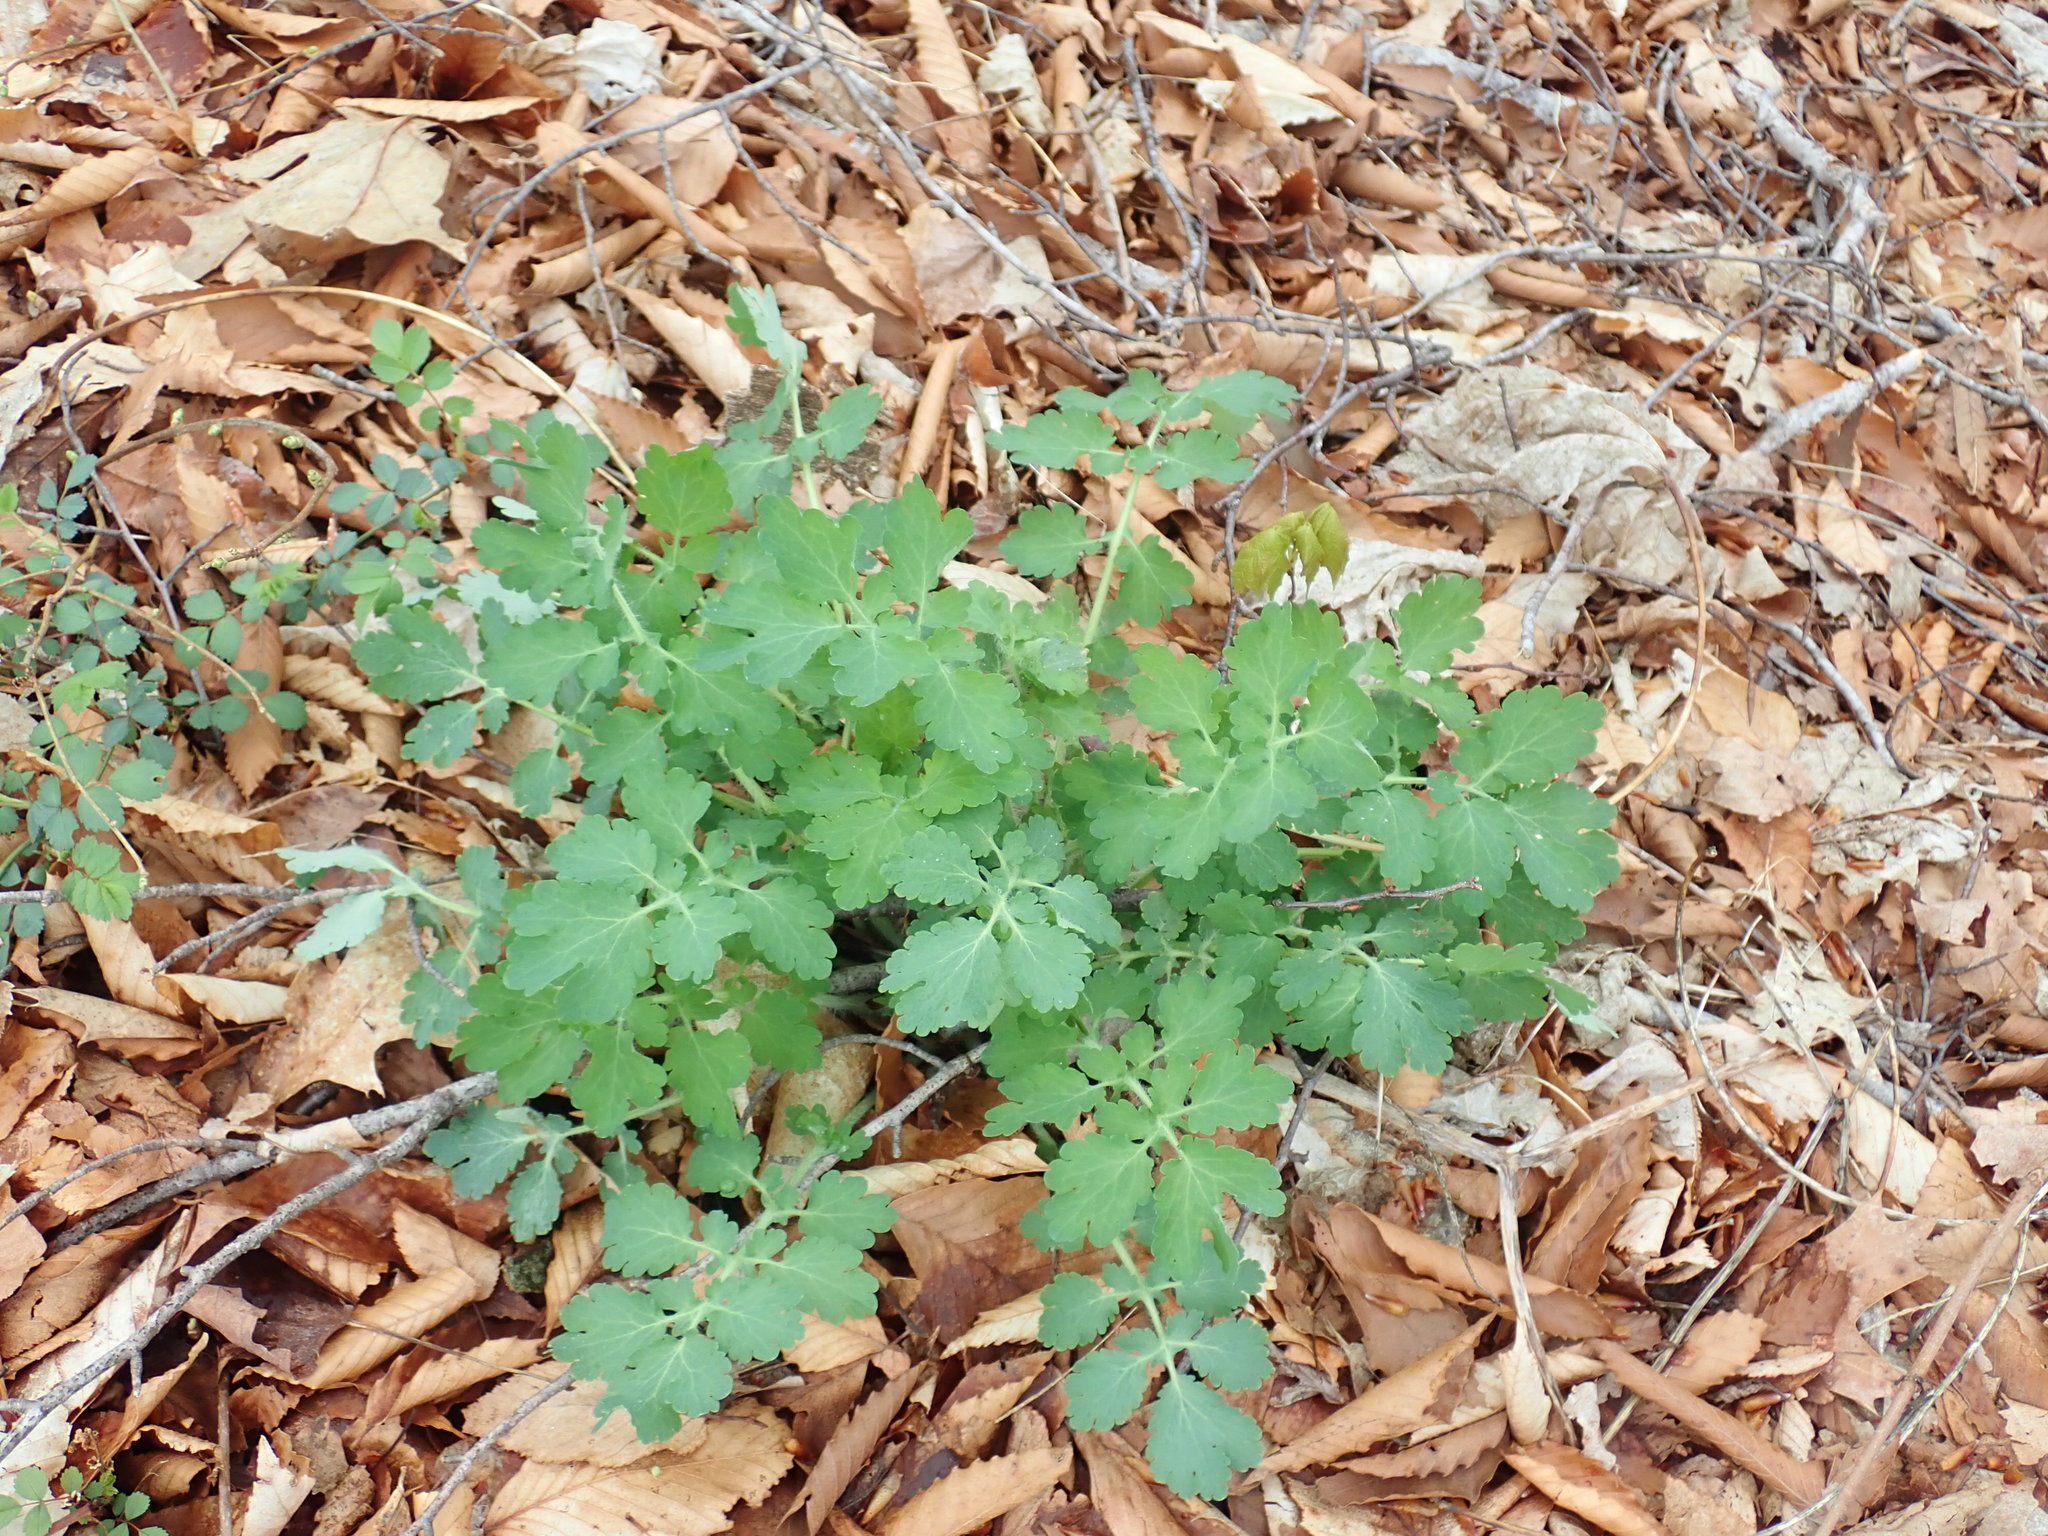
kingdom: Plantae
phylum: Tracheophyta
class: Magnoliopsida
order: Ranunculales
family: Papaveraceae
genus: Chelidonium
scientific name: Chelidonium majus
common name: Greater celandine
